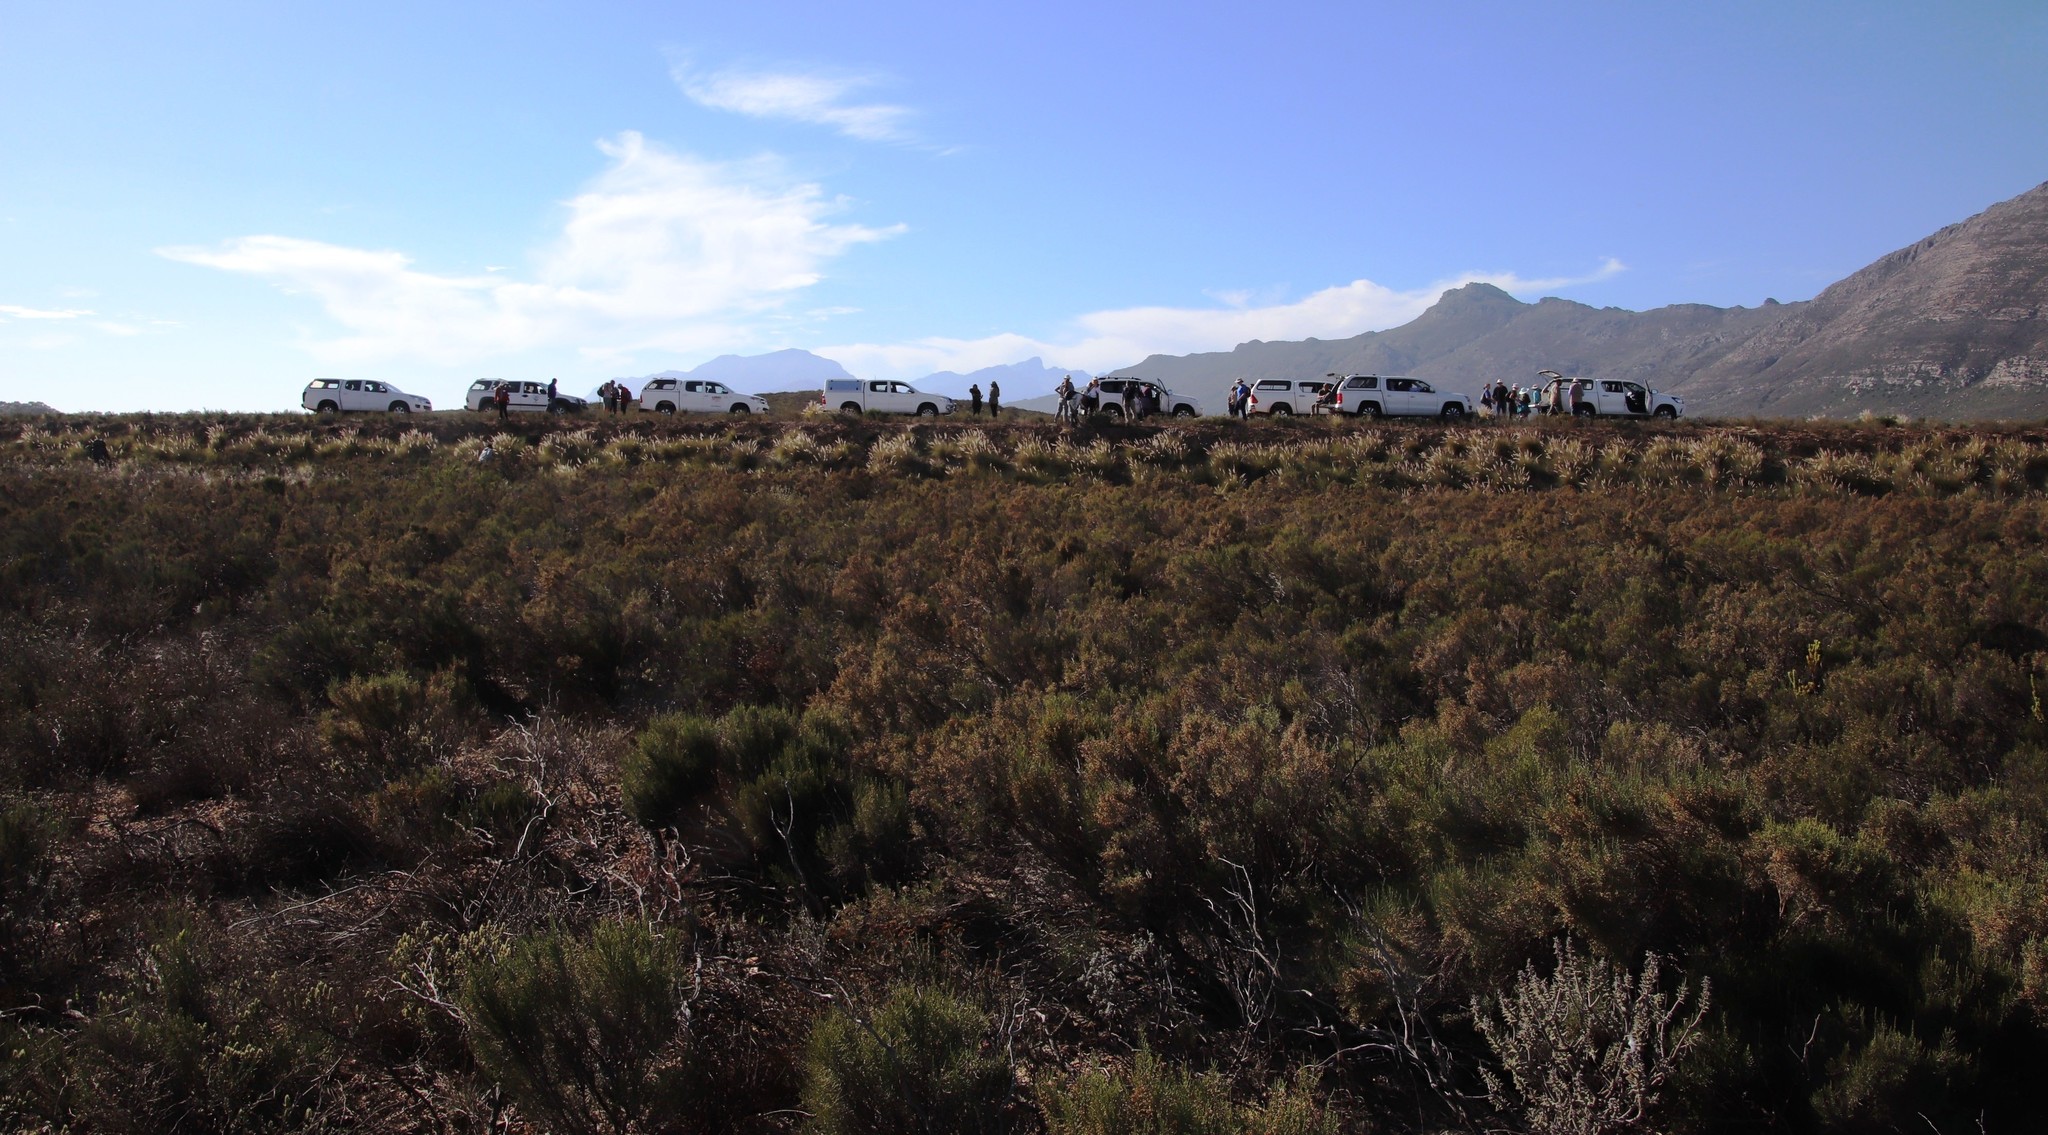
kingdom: Plantae
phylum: Tracheophyta
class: Liliopsida
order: Poales
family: Poaceae
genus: Cenchrus
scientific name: Cenchrus setaceus
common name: Crimson fountaingrass
